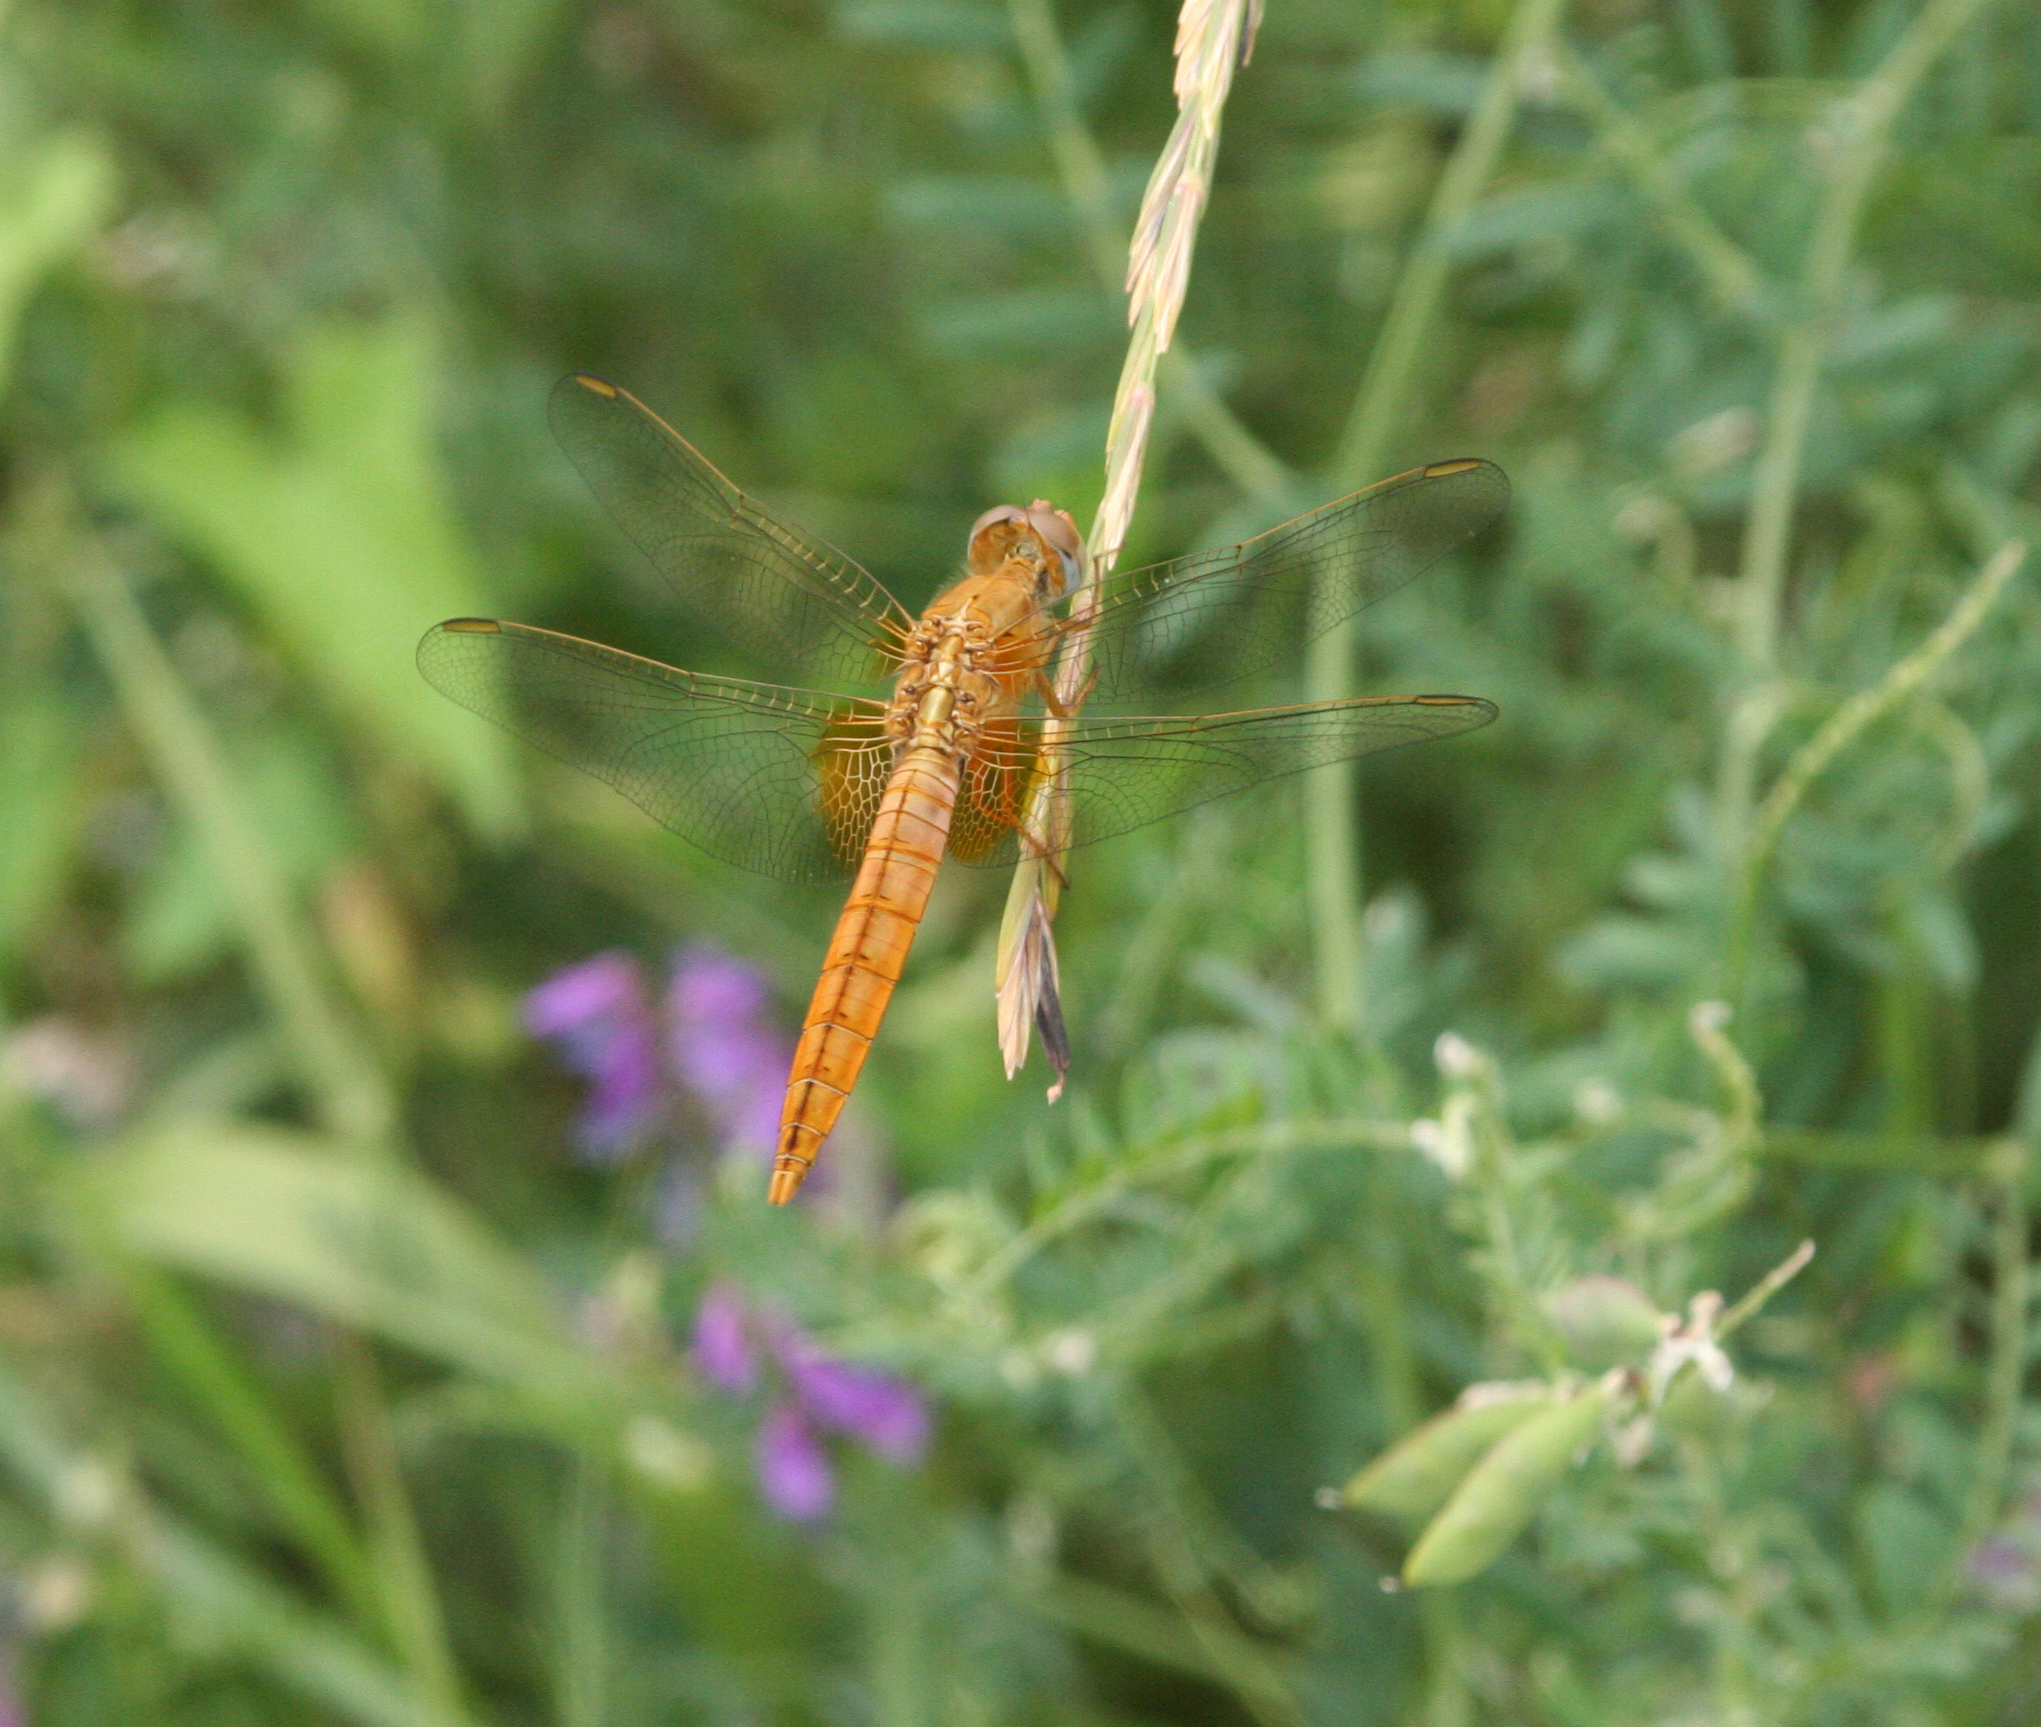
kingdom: Animalia
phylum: Arthropoda
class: Insecta
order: Odonata
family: Libellulidae
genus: Crocothemis
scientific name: Crocothemis erythraea
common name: Scarlet dragonfly
